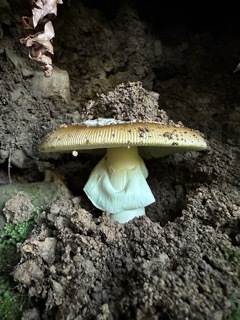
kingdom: Fungi
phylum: Basidiomycota
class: Agaricomycetes
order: Agaricales
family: Amanitaceae
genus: Amanita
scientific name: Amanita calyptroderma
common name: Coccora
